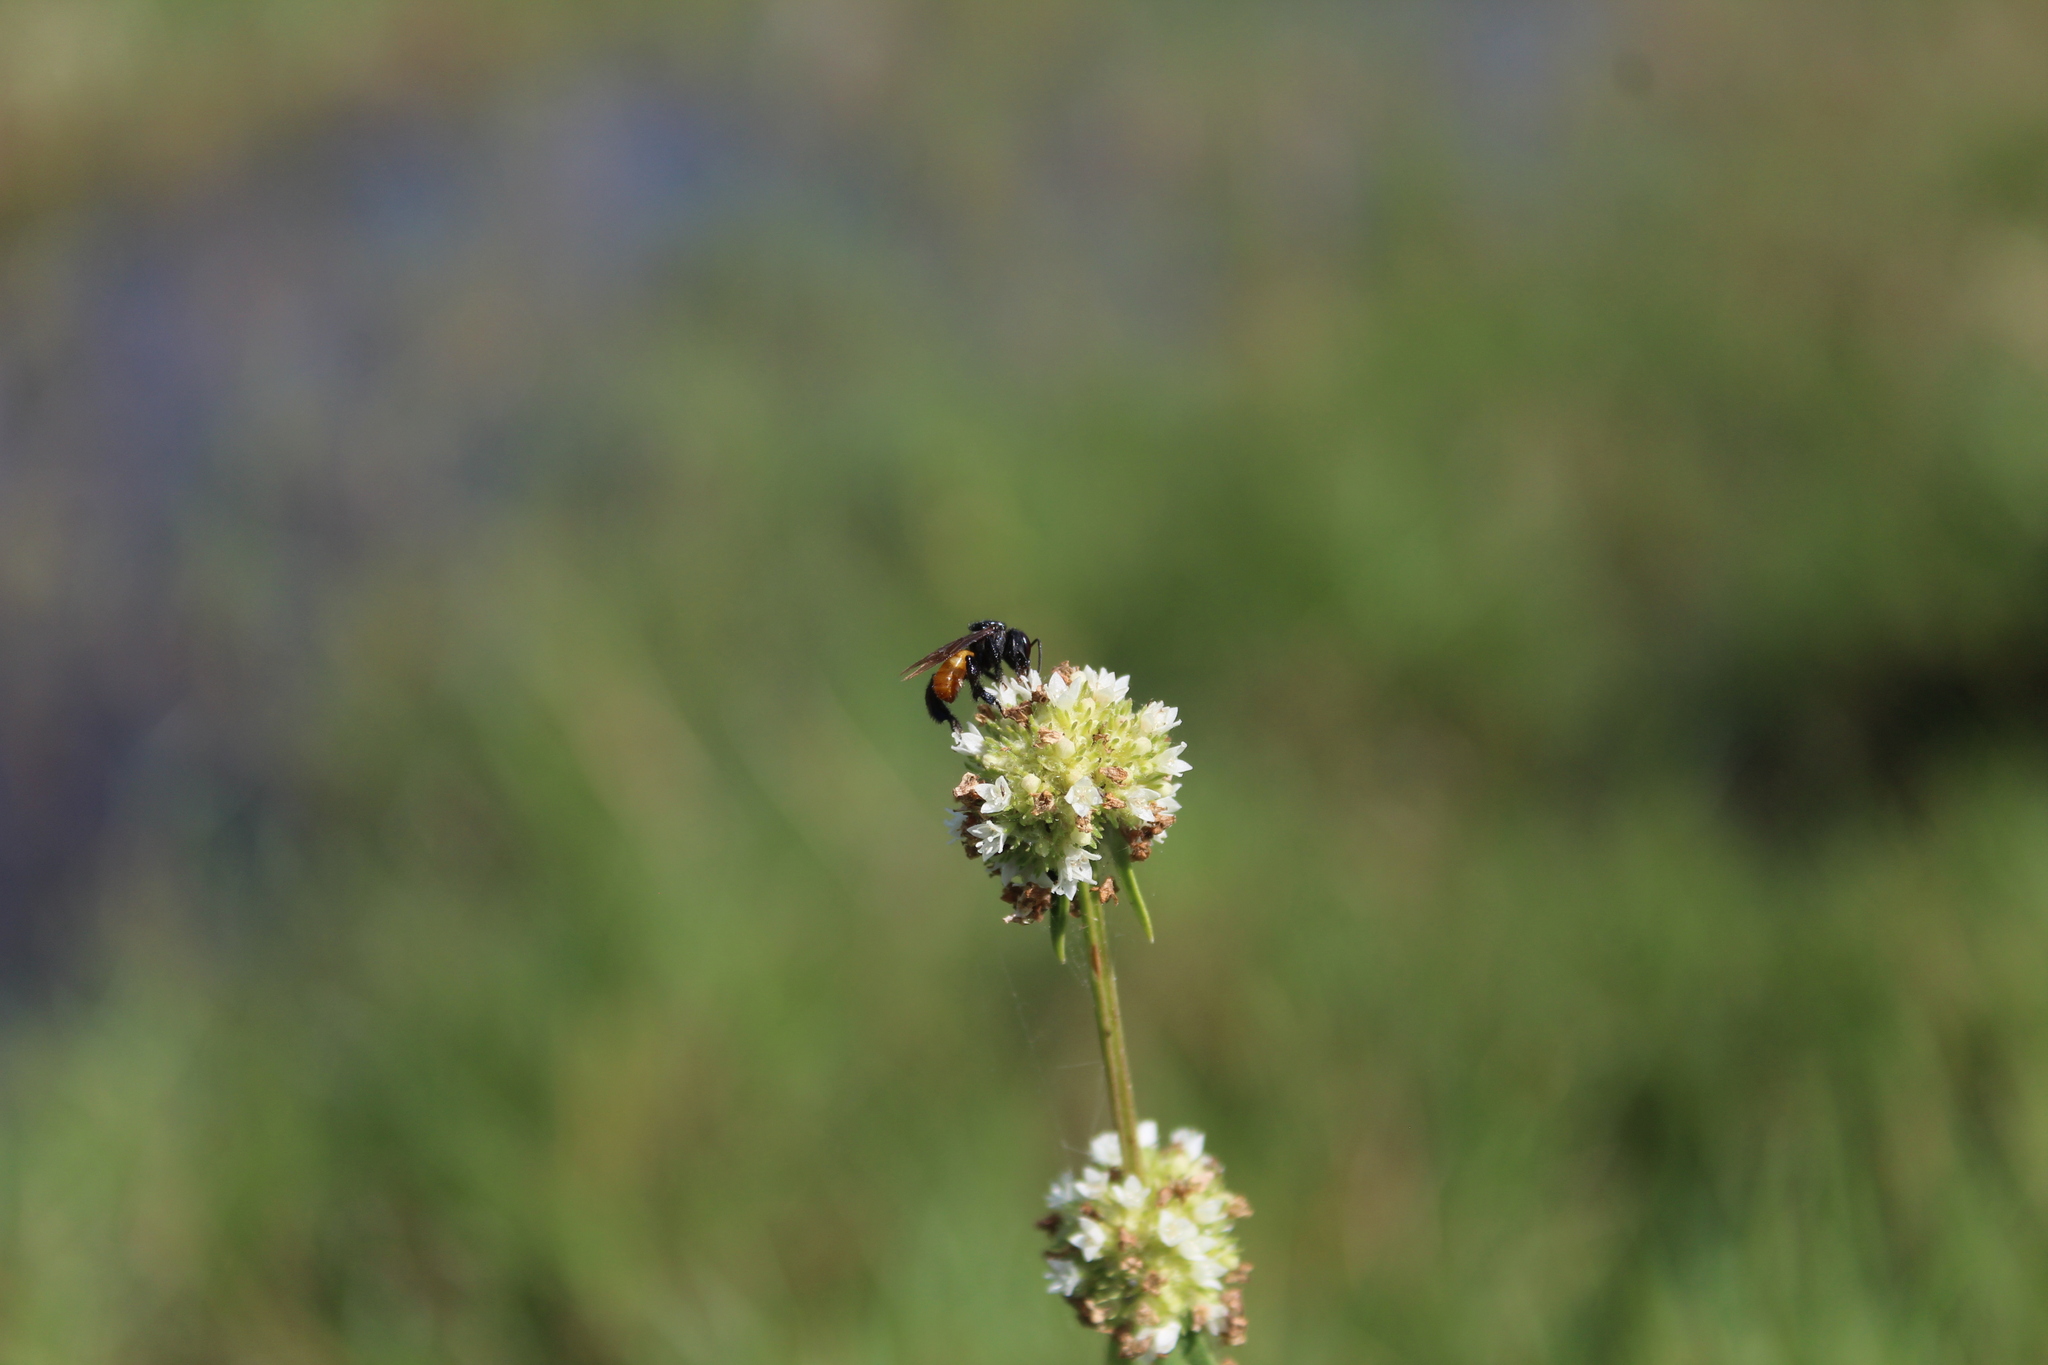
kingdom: Animalia
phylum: Arthropoda
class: Insecta
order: Hymenoptera
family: Apidae
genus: Trigona
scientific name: Trigona fulviventris
